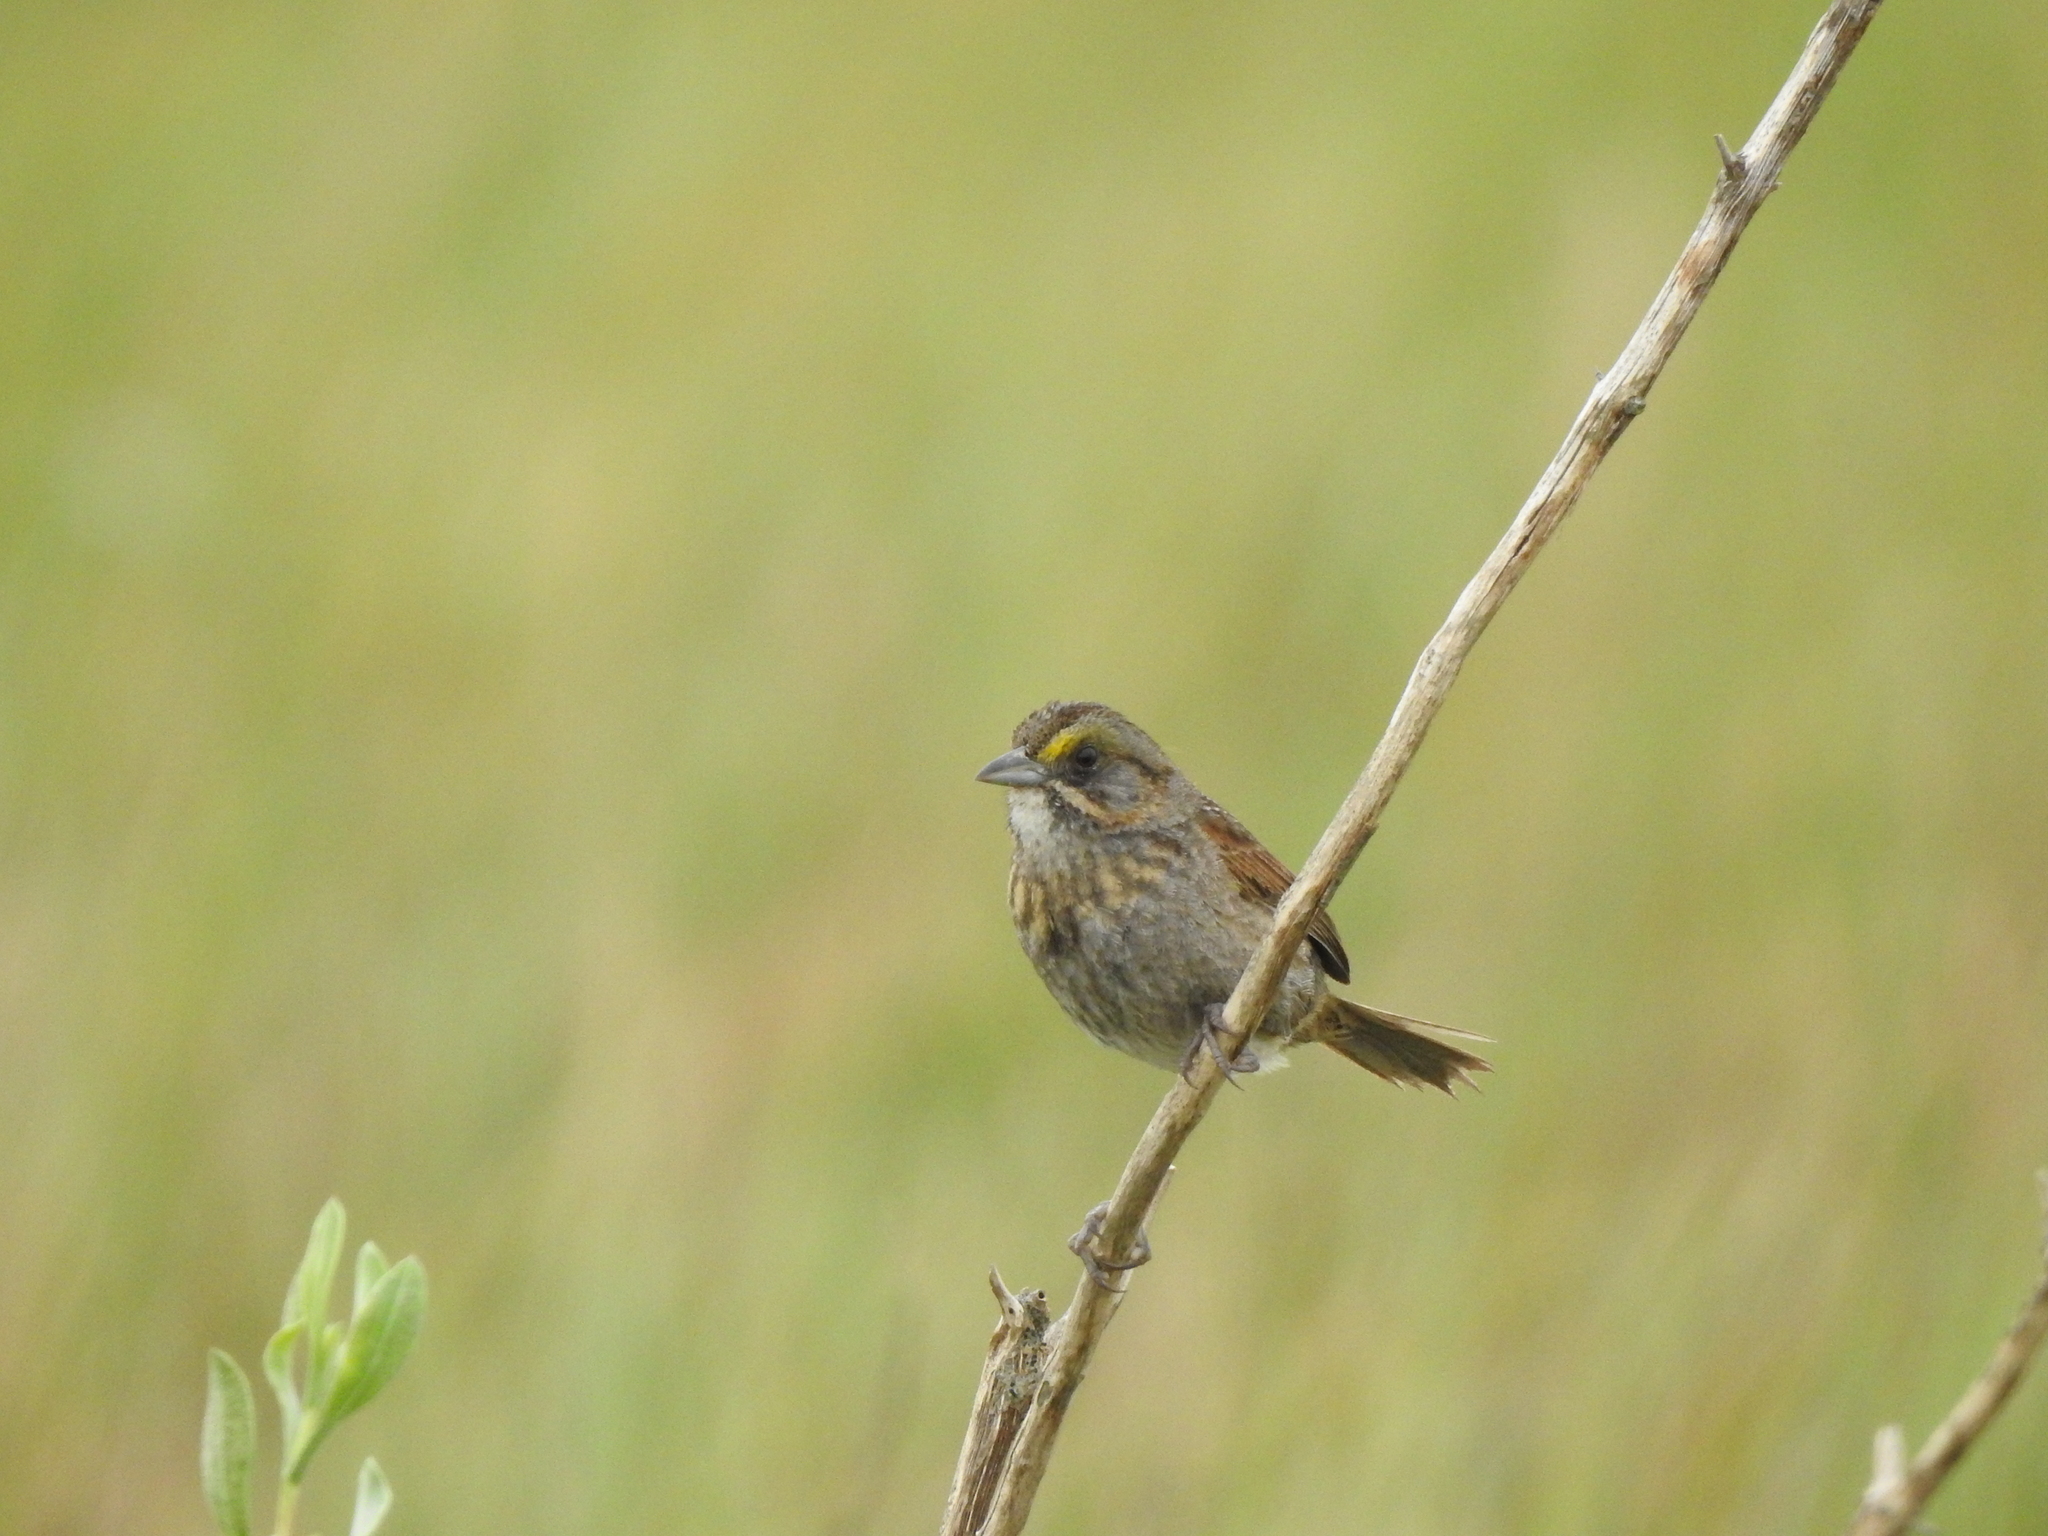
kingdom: Animalia
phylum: Chordata
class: Aves
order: Passeriformes
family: Passerellidae
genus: Ammospiza
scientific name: Ammospiza maritima
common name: Seaside sparrow
